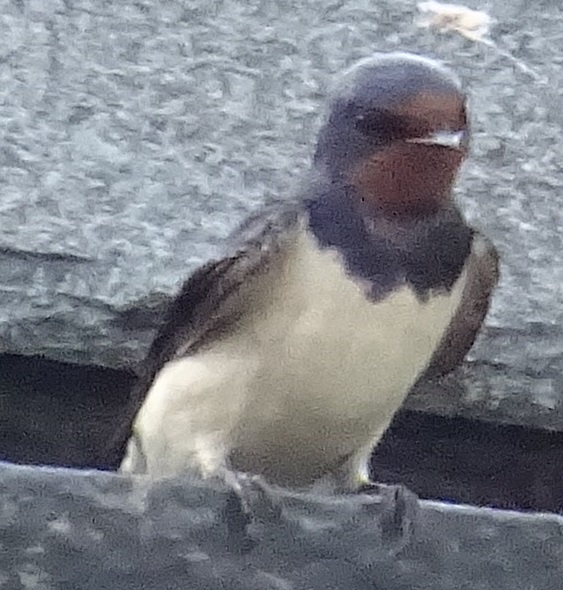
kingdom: Animalia
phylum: Chordata
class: Aves
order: Passeriformes
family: Hirundinidae
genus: Hirundo
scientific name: Hirundo rustica
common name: Barn swallow
